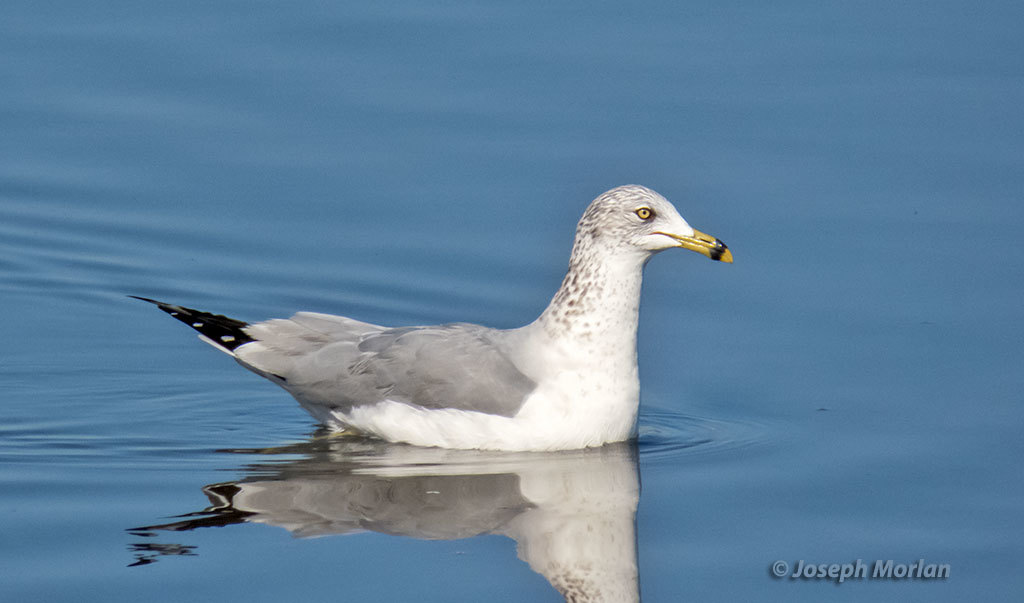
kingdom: Animalia
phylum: Chordata
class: Aves
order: Charadriiformes
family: Laridae
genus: Larus
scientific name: Larus delawarensis
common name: Ring-billed gull
